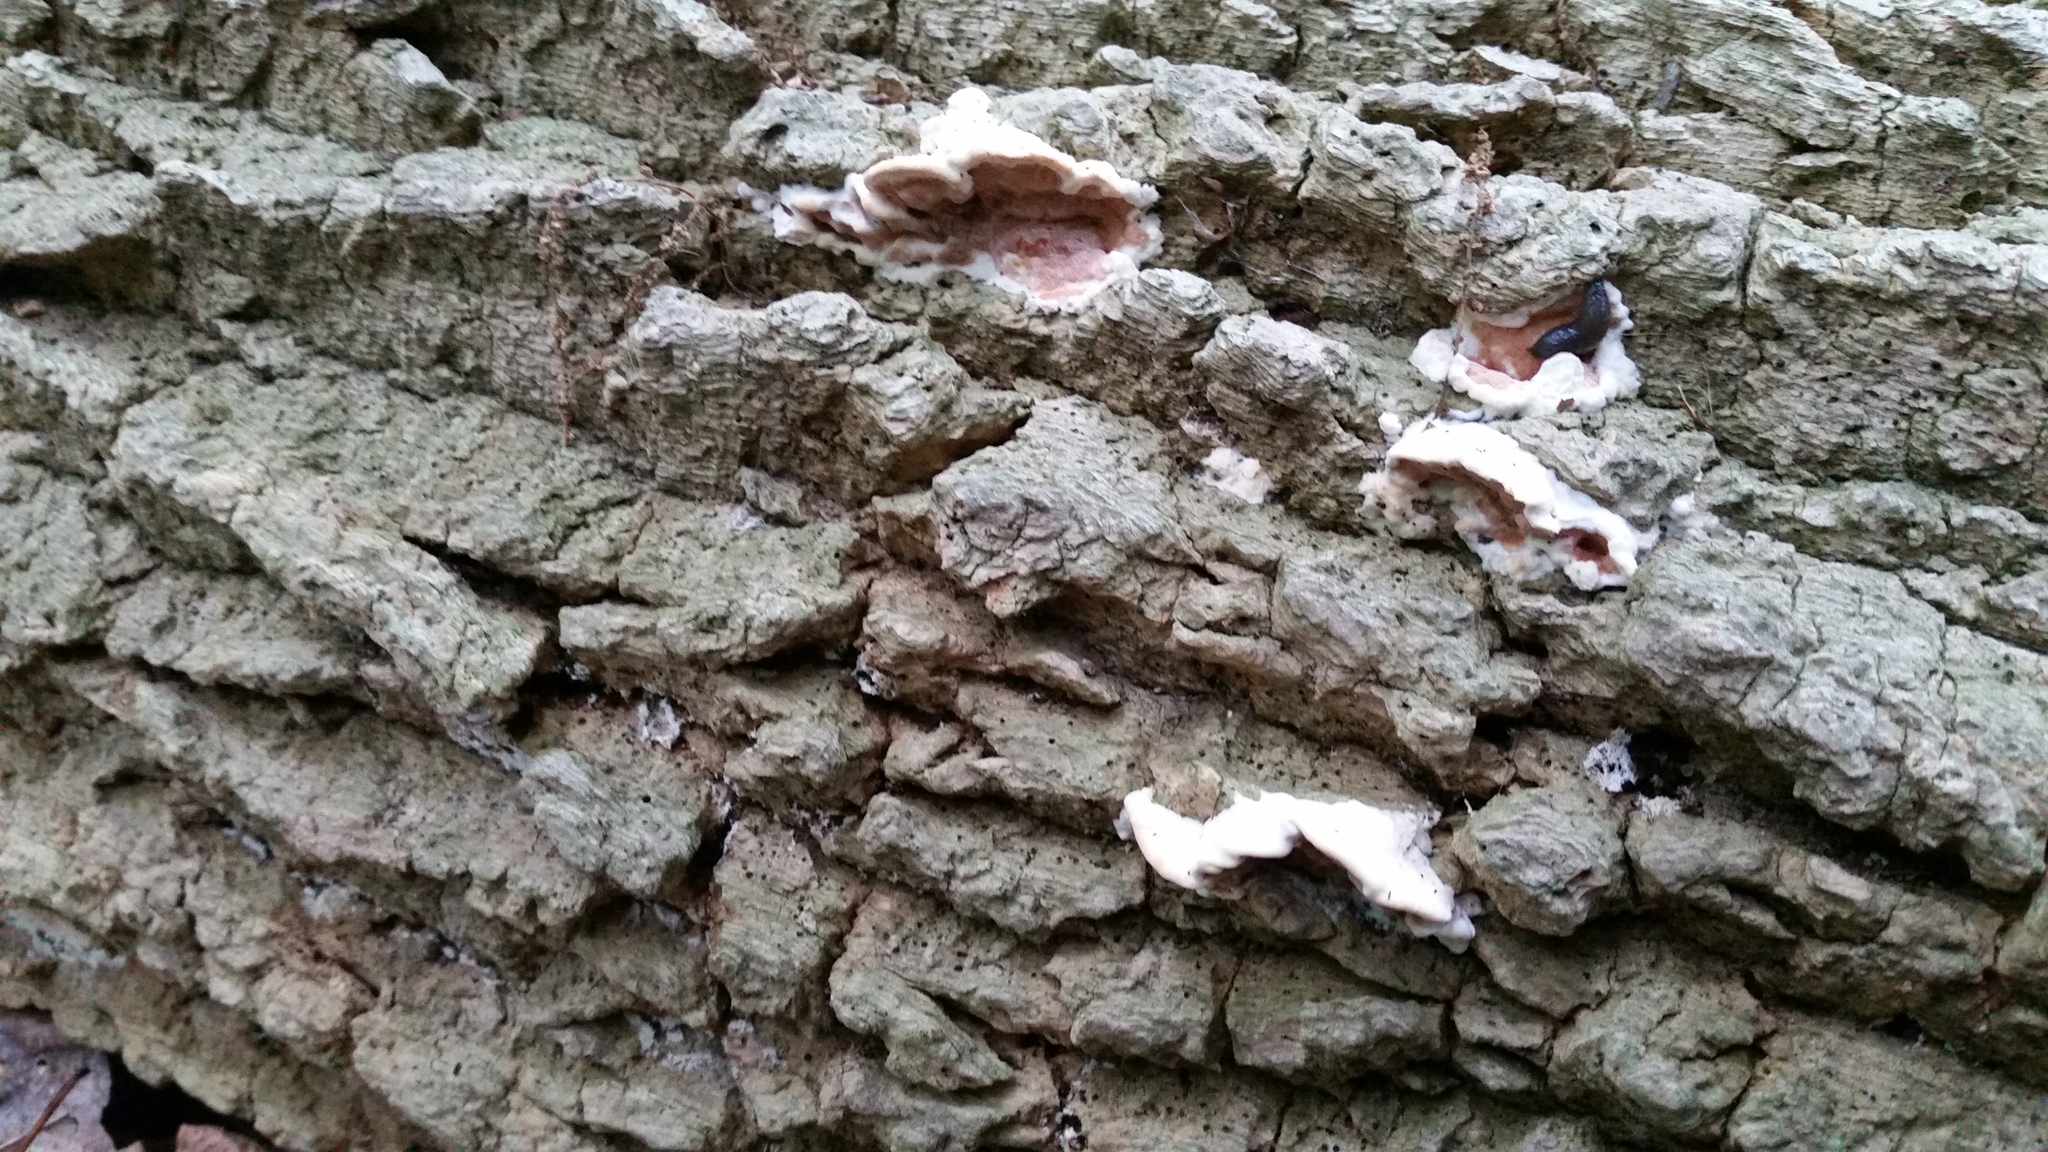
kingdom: Fungi
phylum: Basidiomycota
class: Agaricomycetes
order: Polyporales
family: Irpicaceae
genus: Vitreoporus
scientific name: Vitreoporus dichrous
